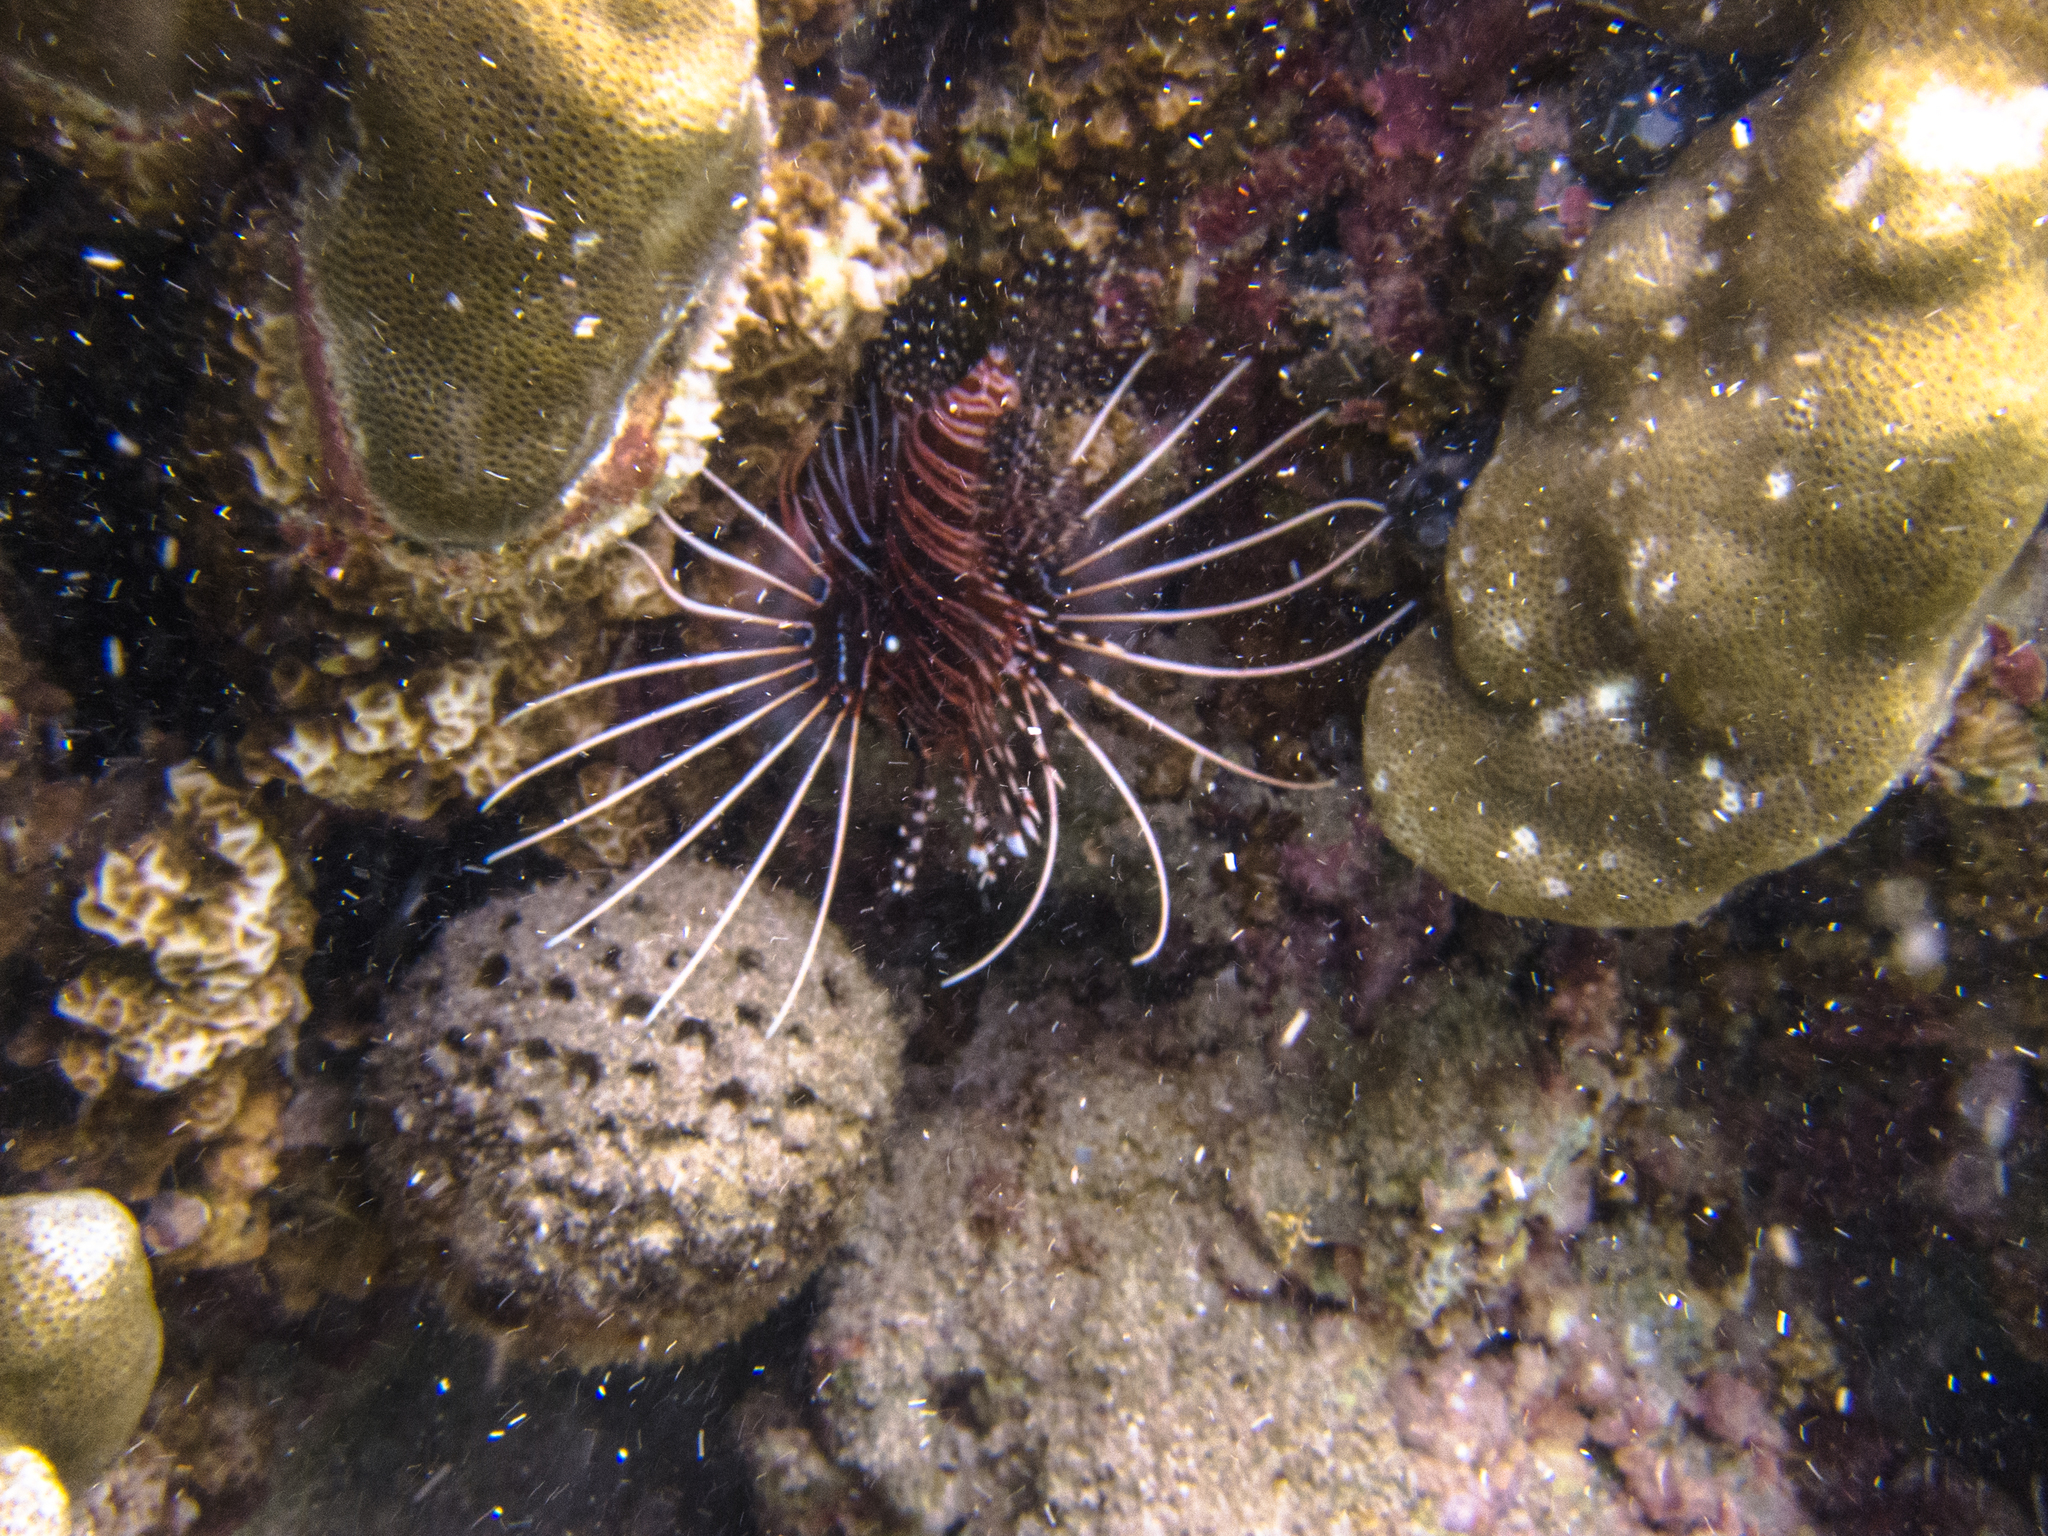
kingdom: Animalia
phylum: Chordata
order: Scorpaeniformes
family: Scorpaenidae
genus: Pterois
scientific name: Pterois antennata
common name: Spotfin lionfish
